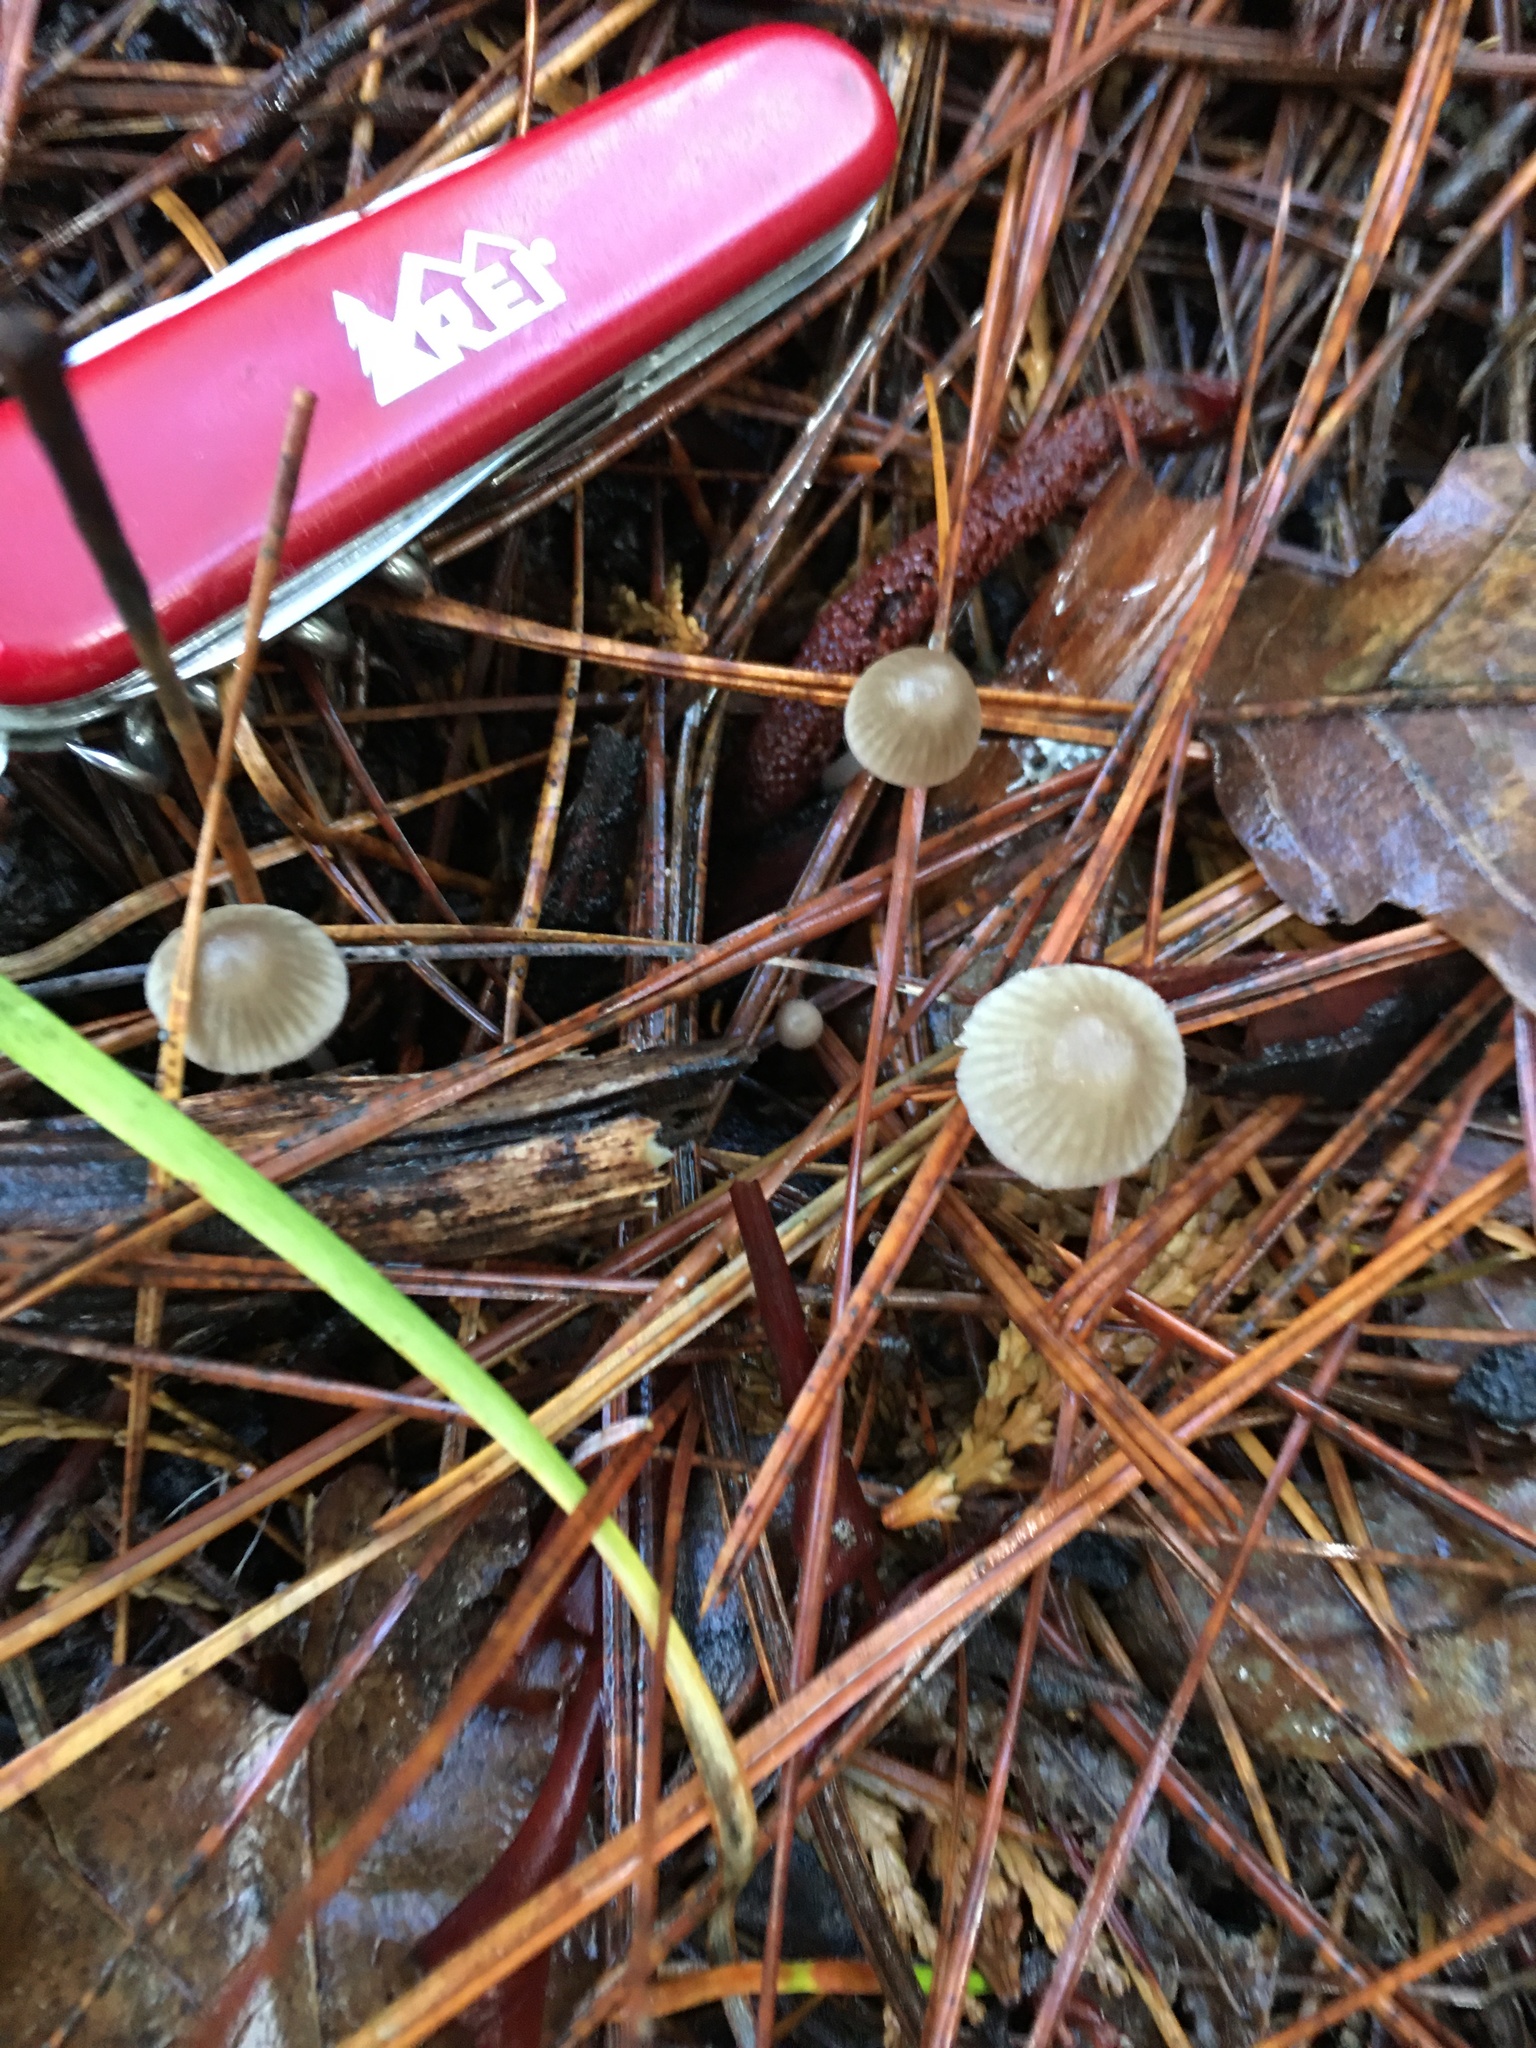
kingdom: Fungi
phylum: Basidiomycota
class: Agaricomycetes
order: Agaricales
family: Mycenaceae
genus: Mycena
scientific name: Mycena capillaripes
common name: Pinkedge bonnet
